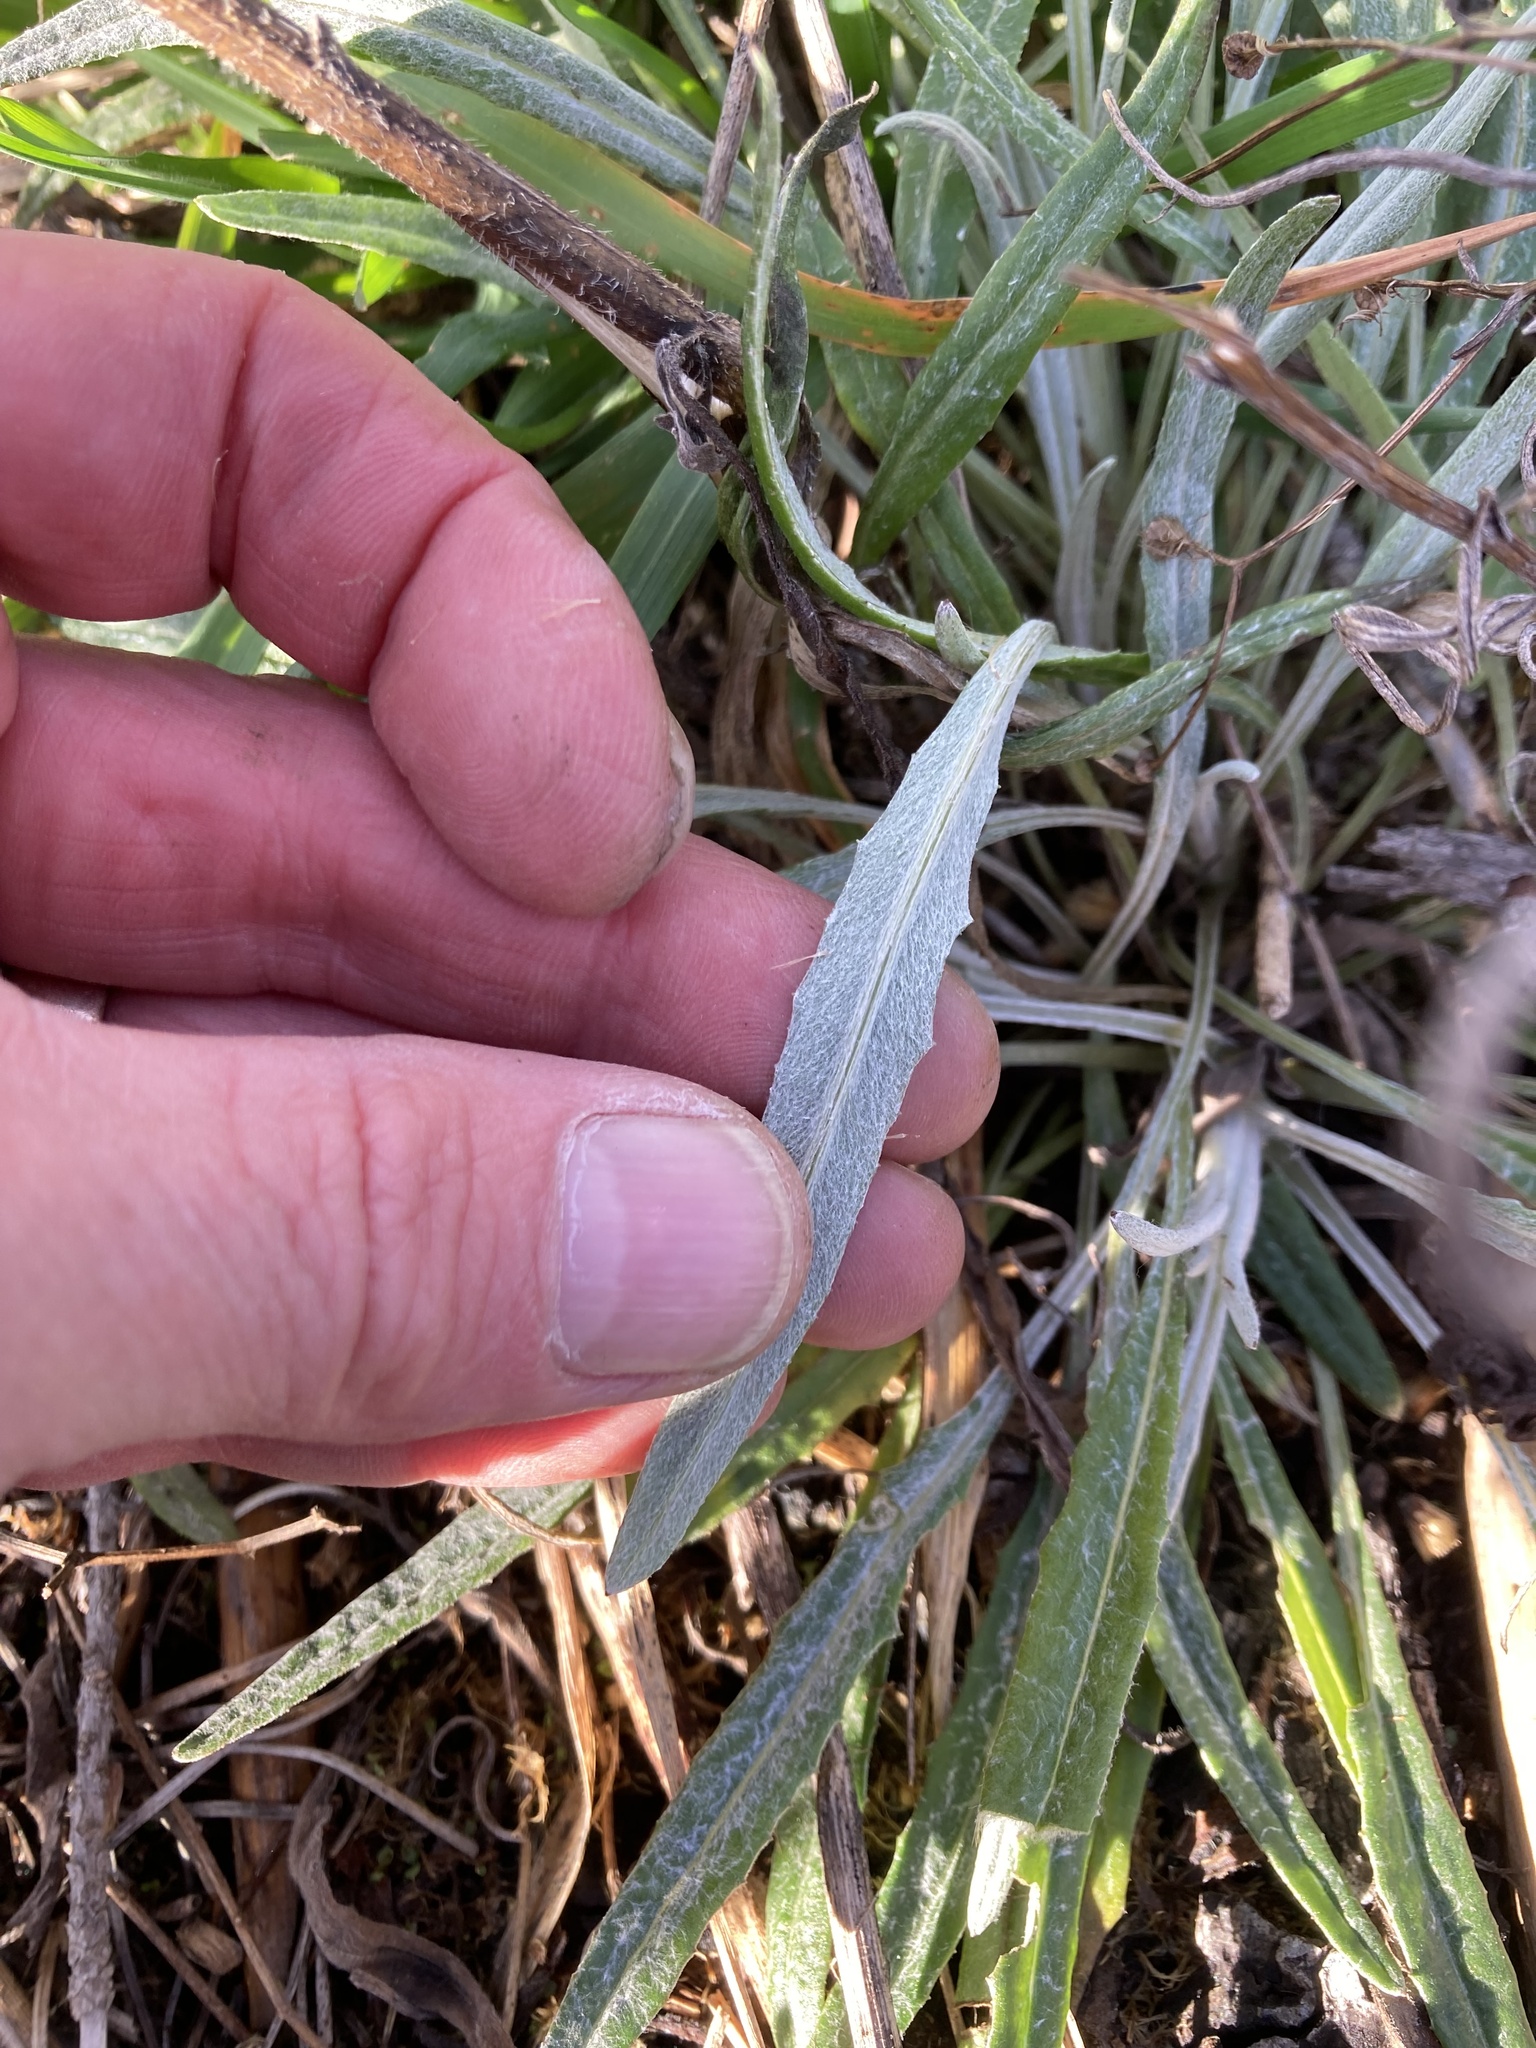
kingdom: Plantae
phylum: Tracheophyta
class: Magnoliopsida
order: Asterales
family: Asteraceae
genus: Senecio
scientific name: Senecio quadridentatus
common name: Cotton fireweed
